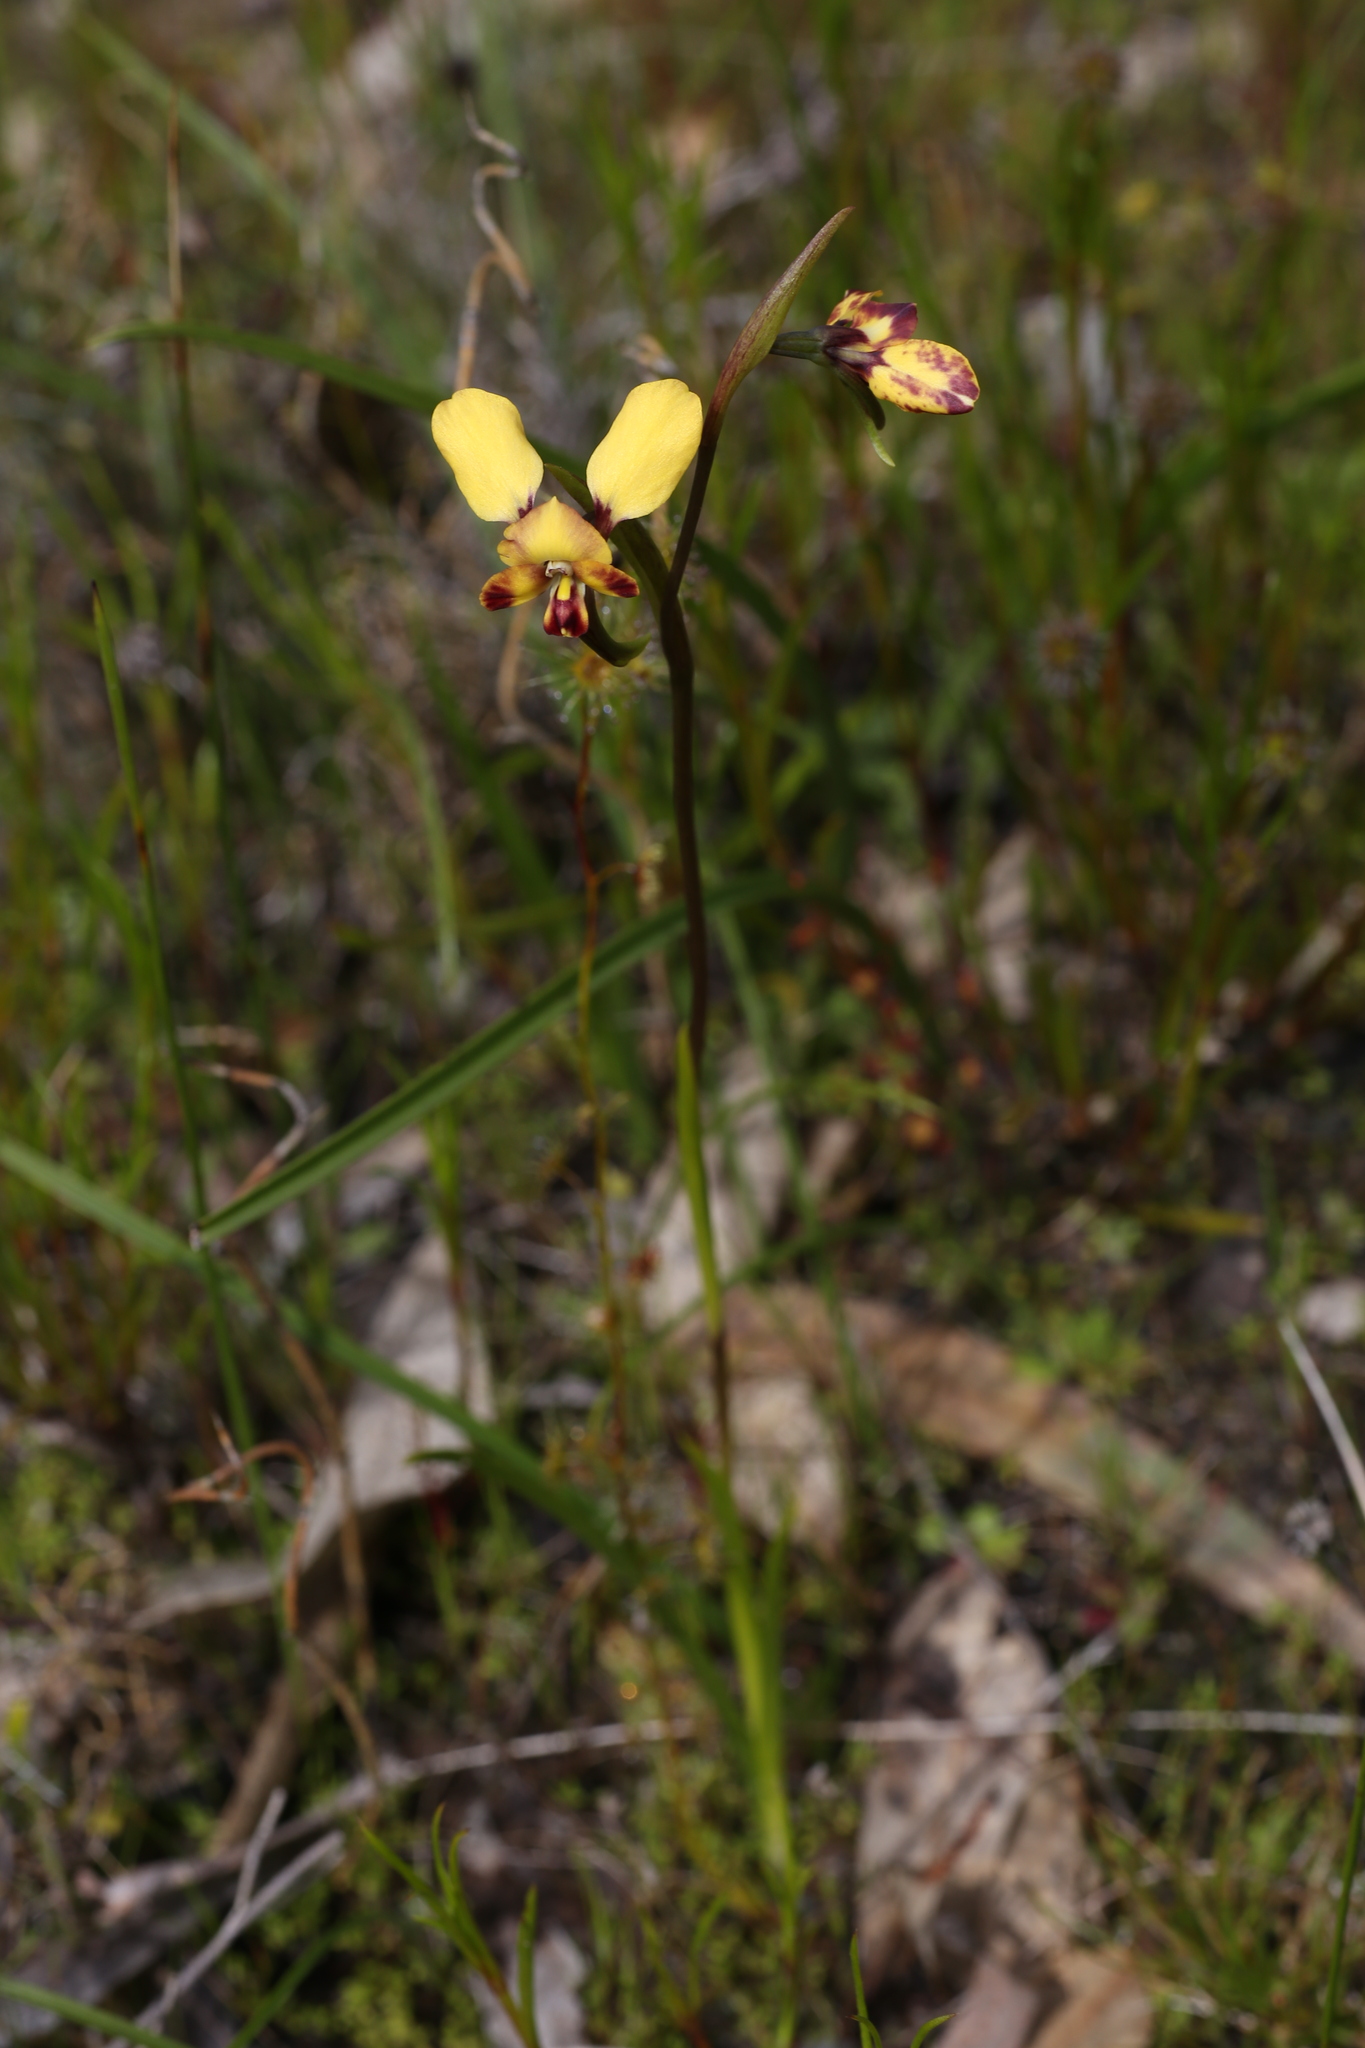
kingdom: Plantae
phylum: Tracheophyta
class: Liliopsida
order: Asparagales
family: Orchidaceae
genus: Diuris
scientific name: Diuris porrifolia
